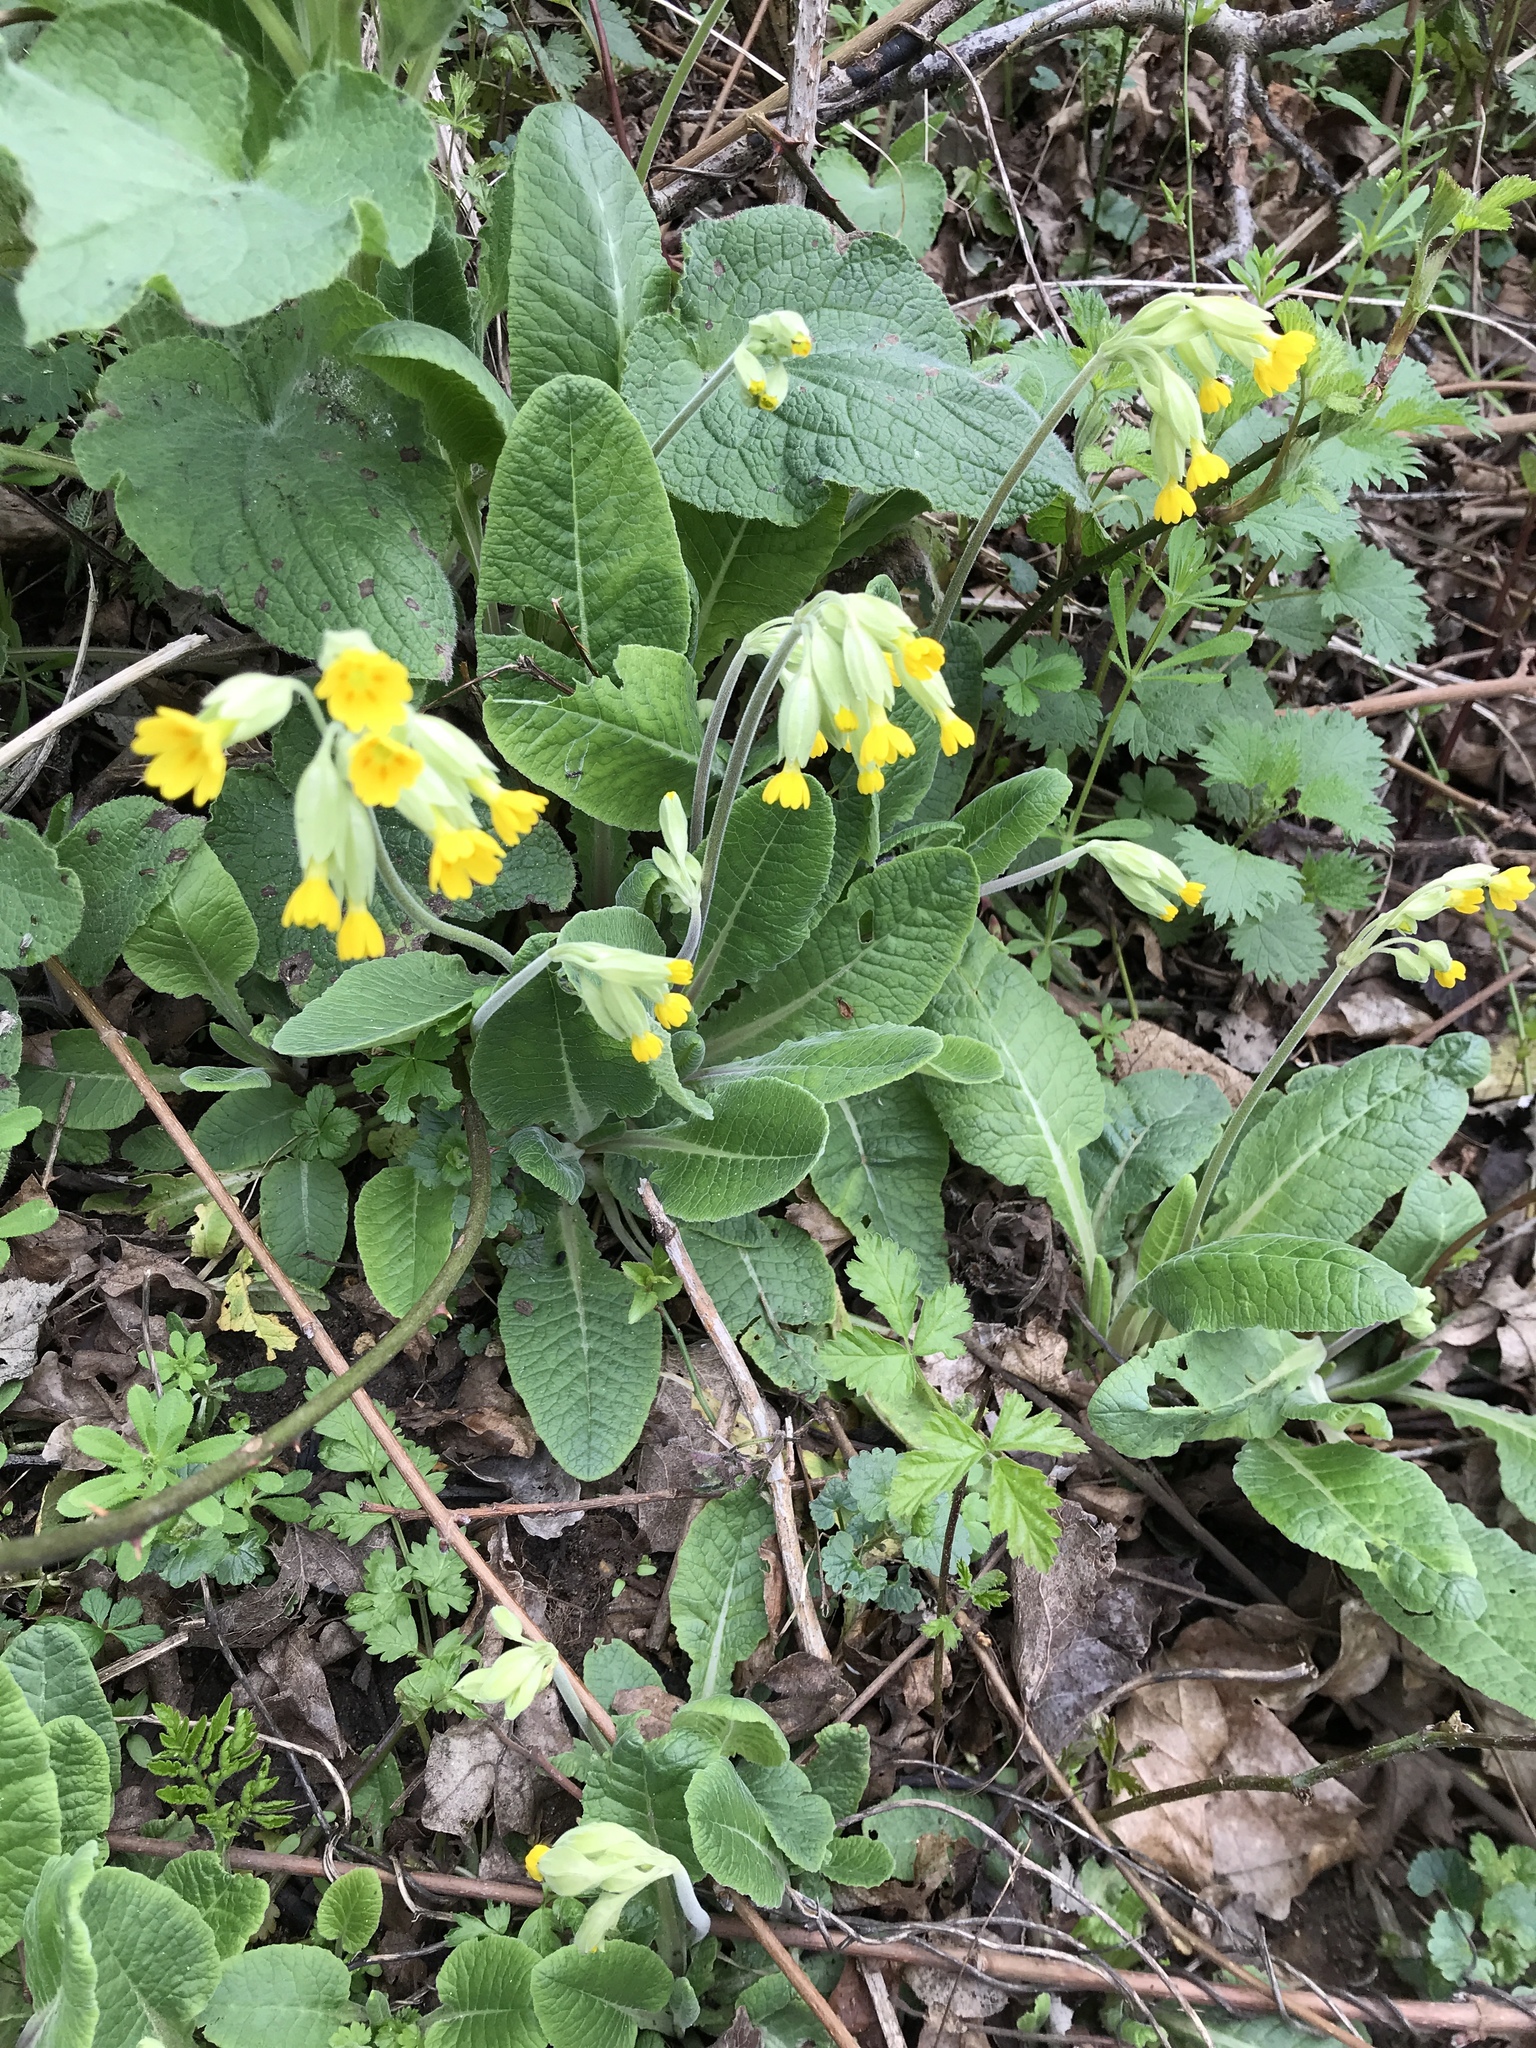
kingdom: Plantae
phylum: Tracheophyta
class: Magnoliopsida
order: Ericales
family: Primulaceae
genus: Primula
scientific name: Primula veris
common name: Cowslip
